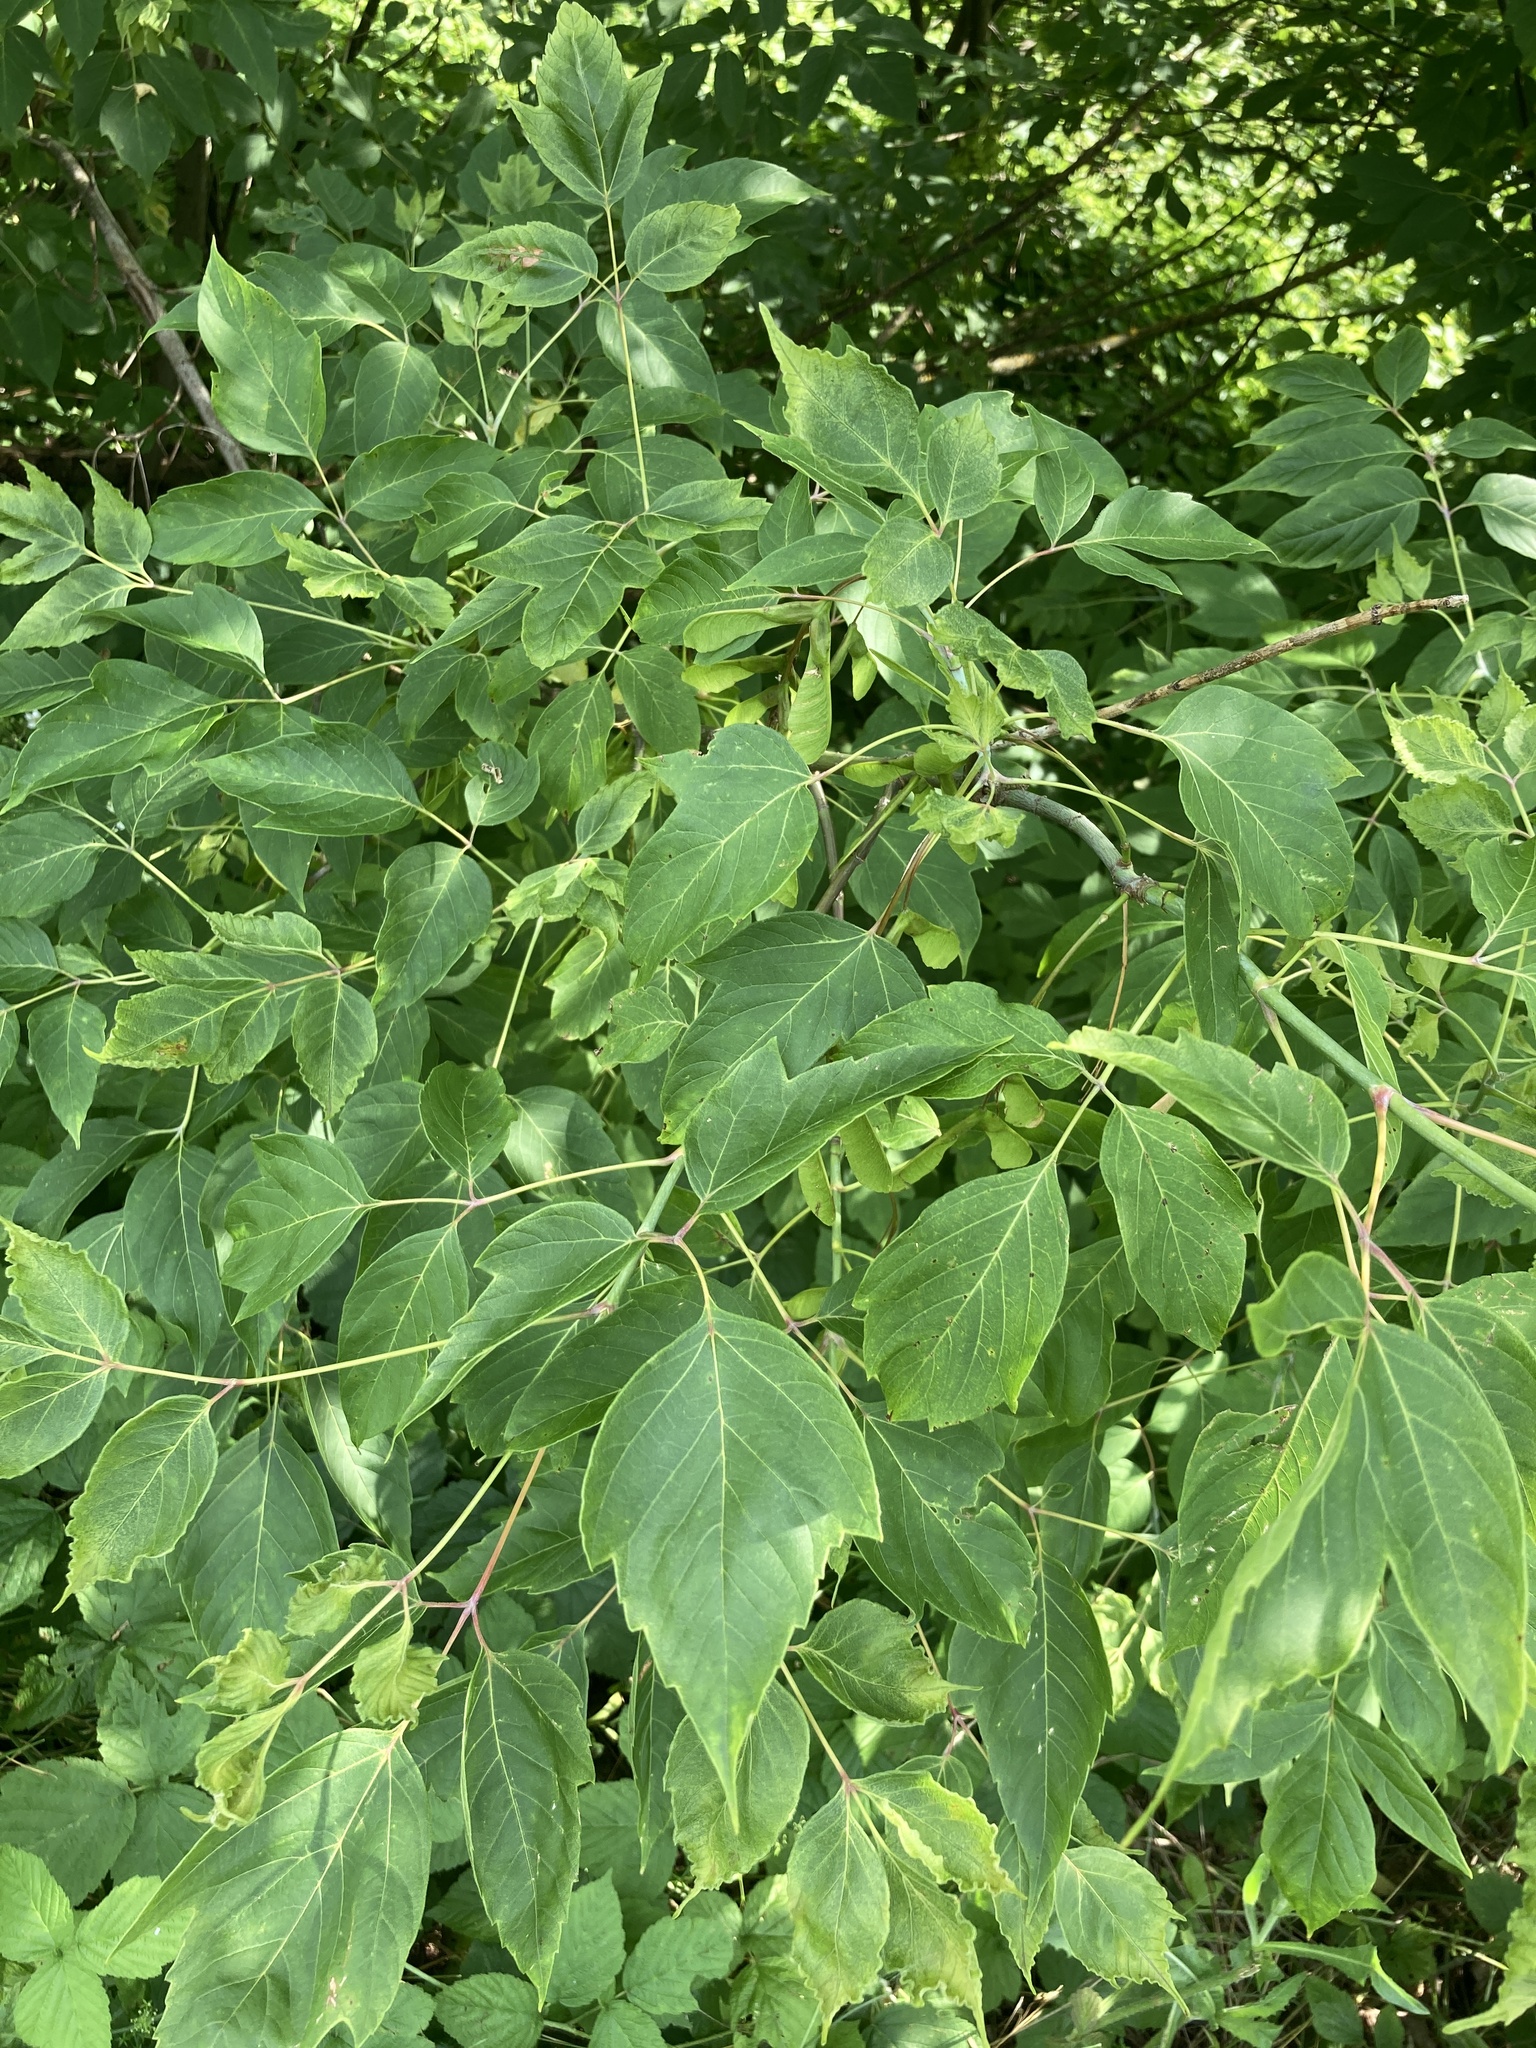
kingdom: Plantae
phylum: Tracheophyta
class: Magnoliopsida
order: Sapindales
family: Sapindaceae
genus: Acer
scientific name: Acer negundo
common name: Ashleaf maple
